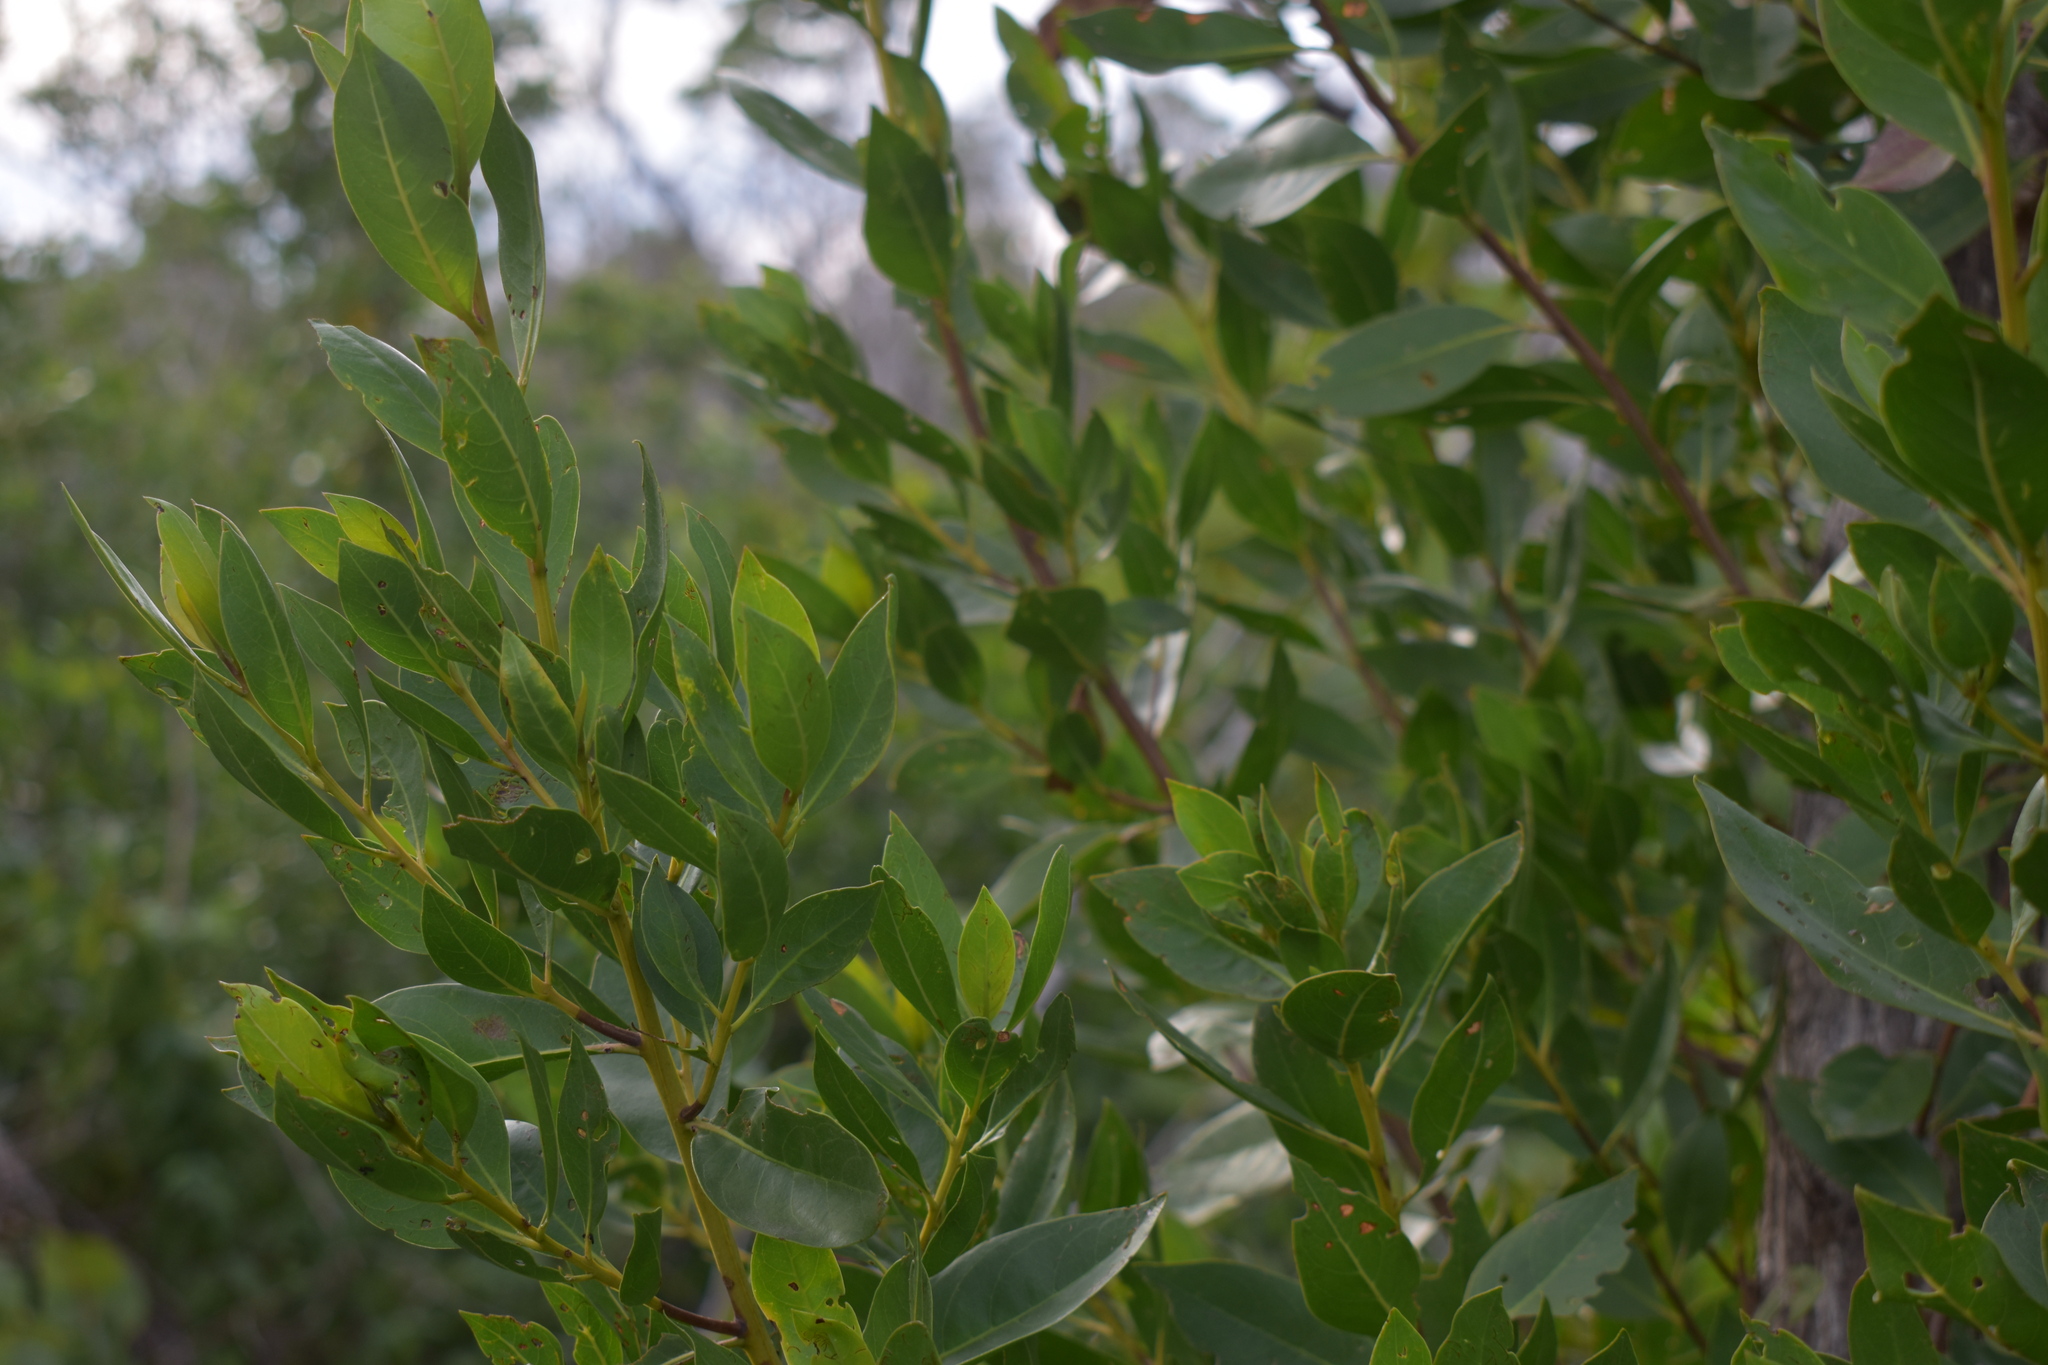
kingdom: Plantae
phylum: Tracheophyta
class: Magnoliopsida
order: Myrtales
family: Combretaceae
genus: Conocarpus
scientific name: Conocarpus erectus
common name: Button mangrove
